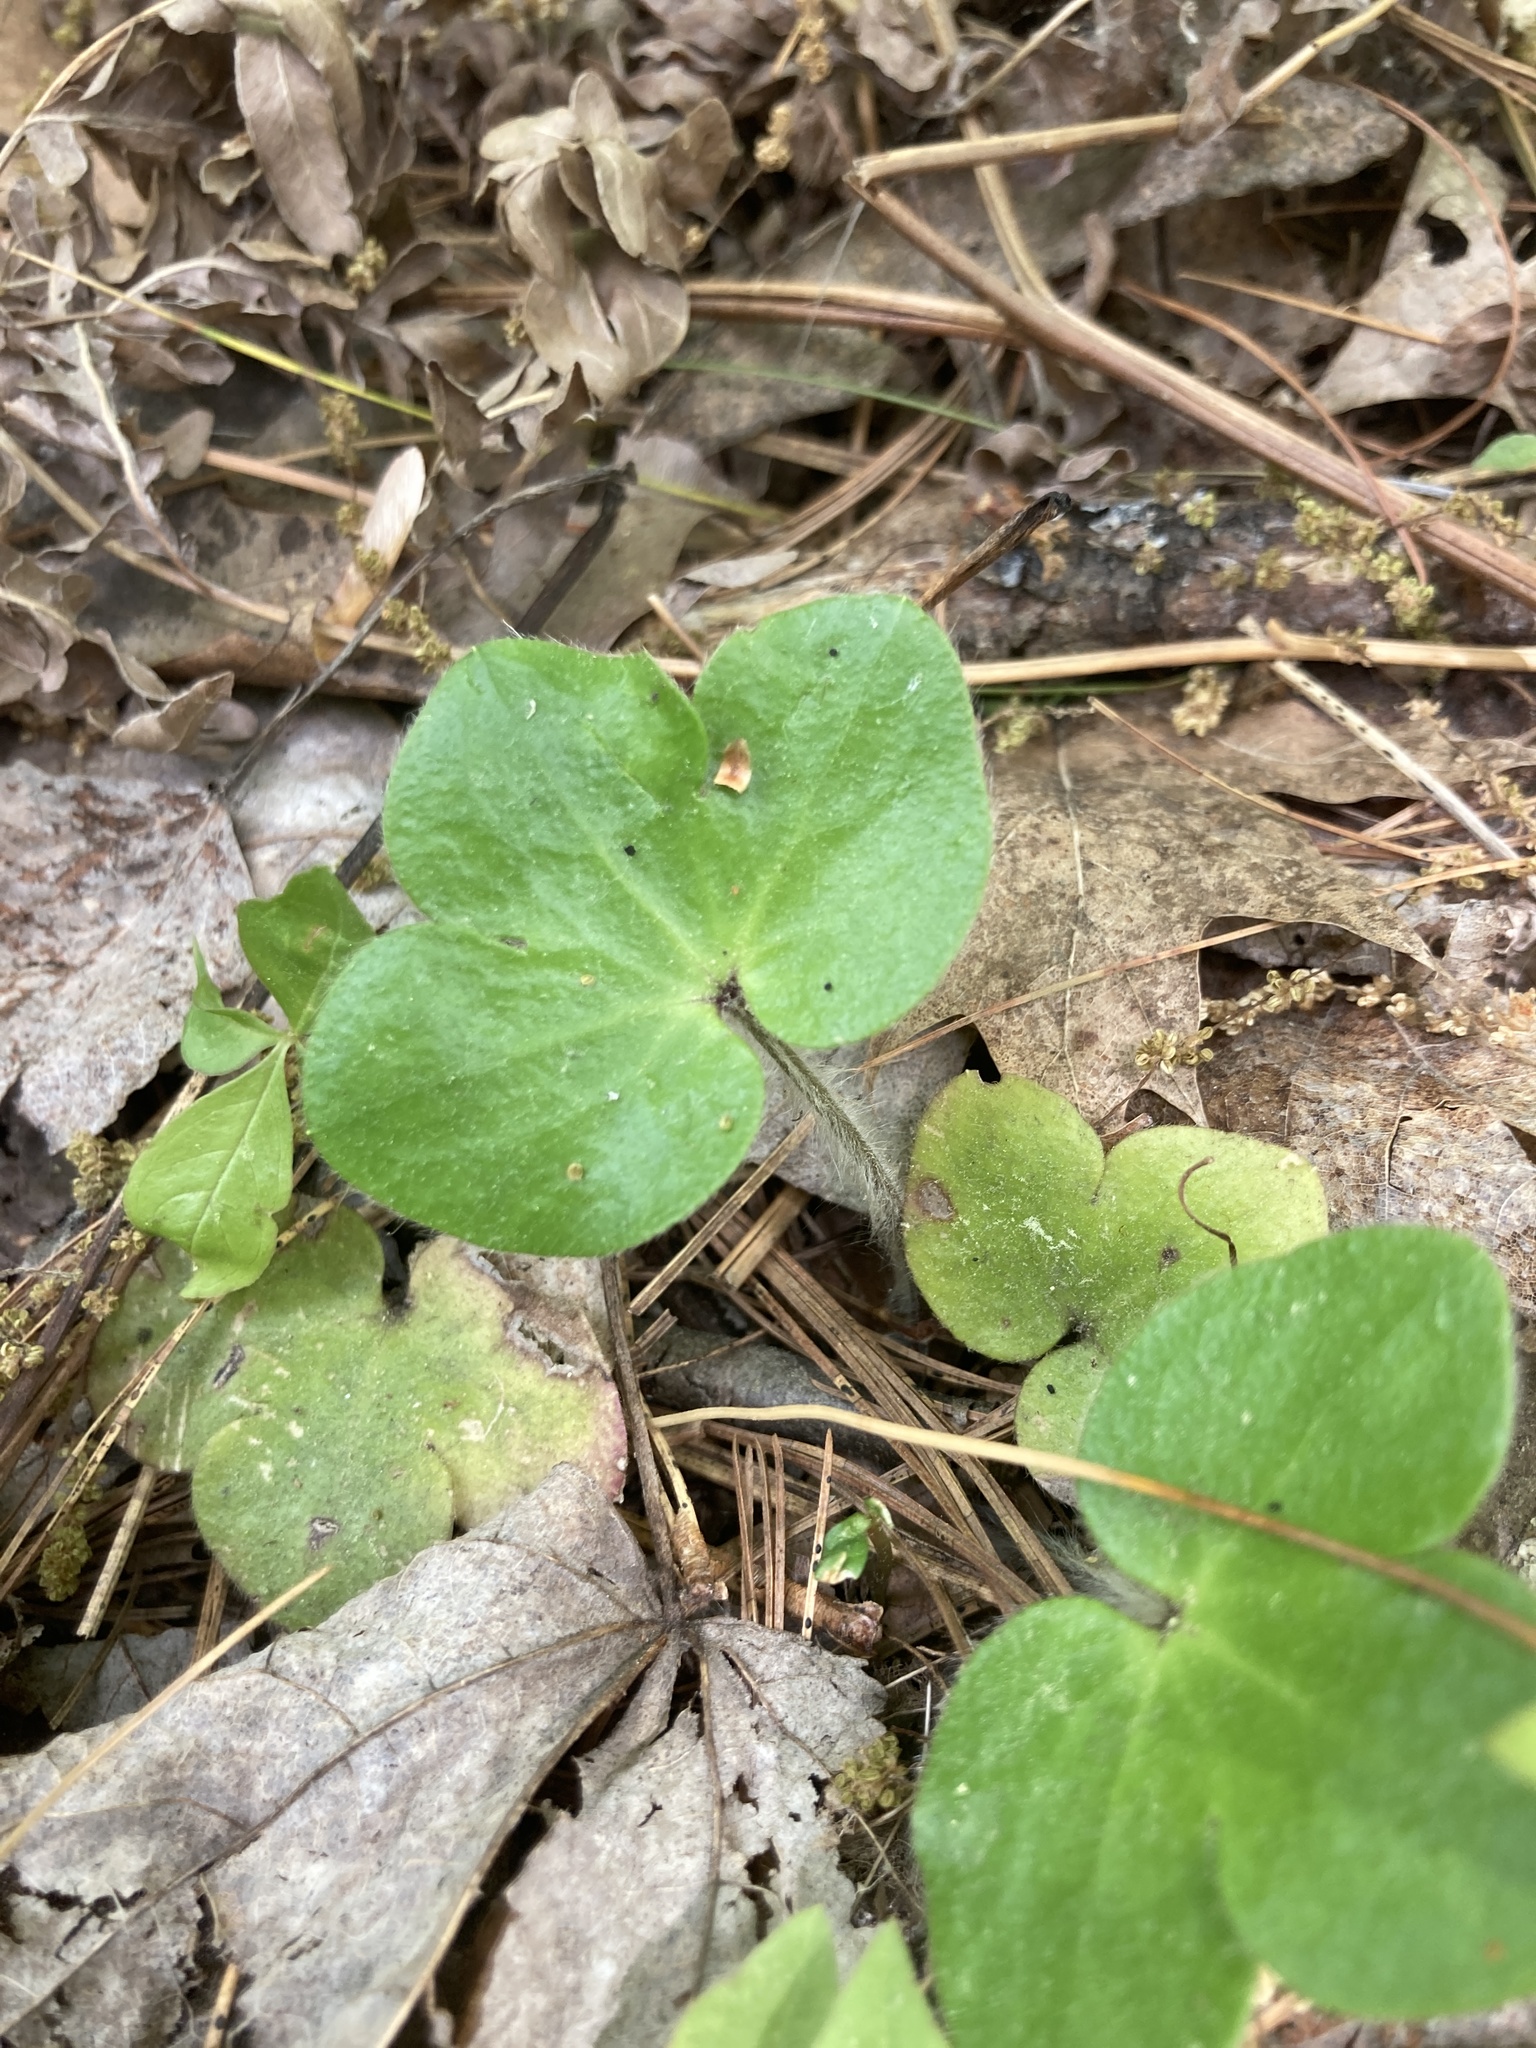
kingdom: Plantae
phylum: Tracheophyta
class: Magnoliopsida
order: Ranunculales
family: Ranunculaceae
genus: Hepatica
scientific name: Hepatica americana
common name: American hepatica
